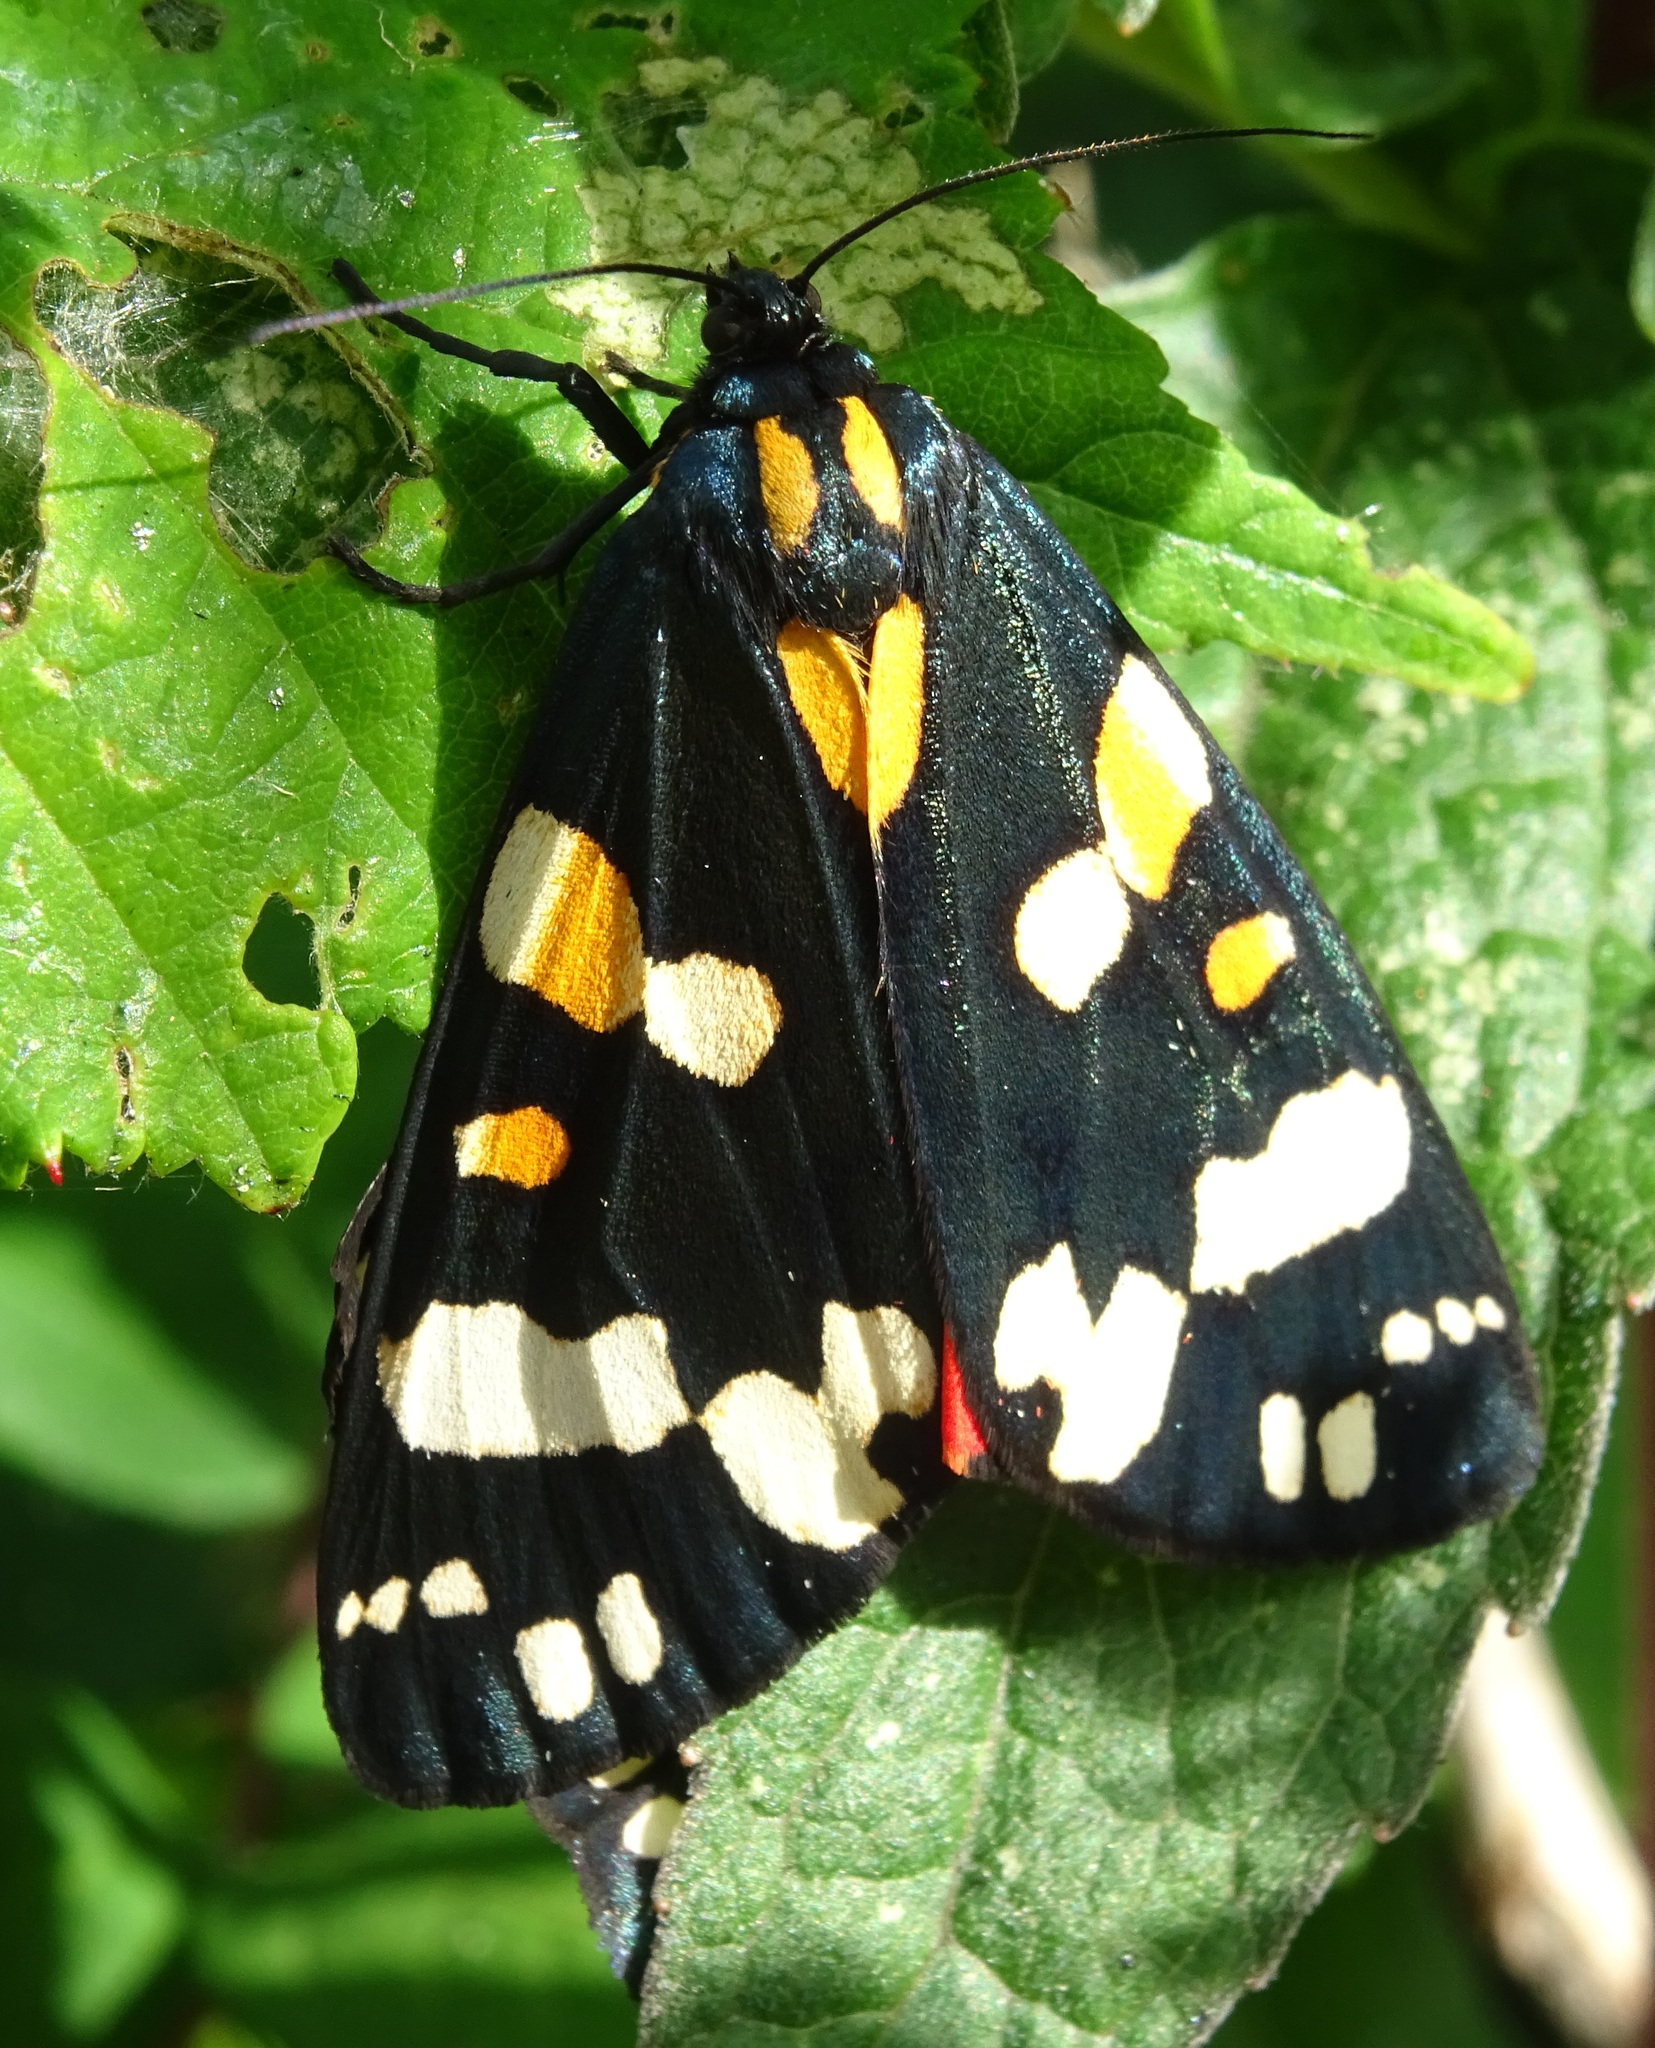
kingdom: Animalia
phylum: Arthropoda
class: Insecta
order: Lepidoptera
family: Erebidae
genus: Callimorpha
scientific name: Callimorpha dominula
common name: Scarlet tiger
